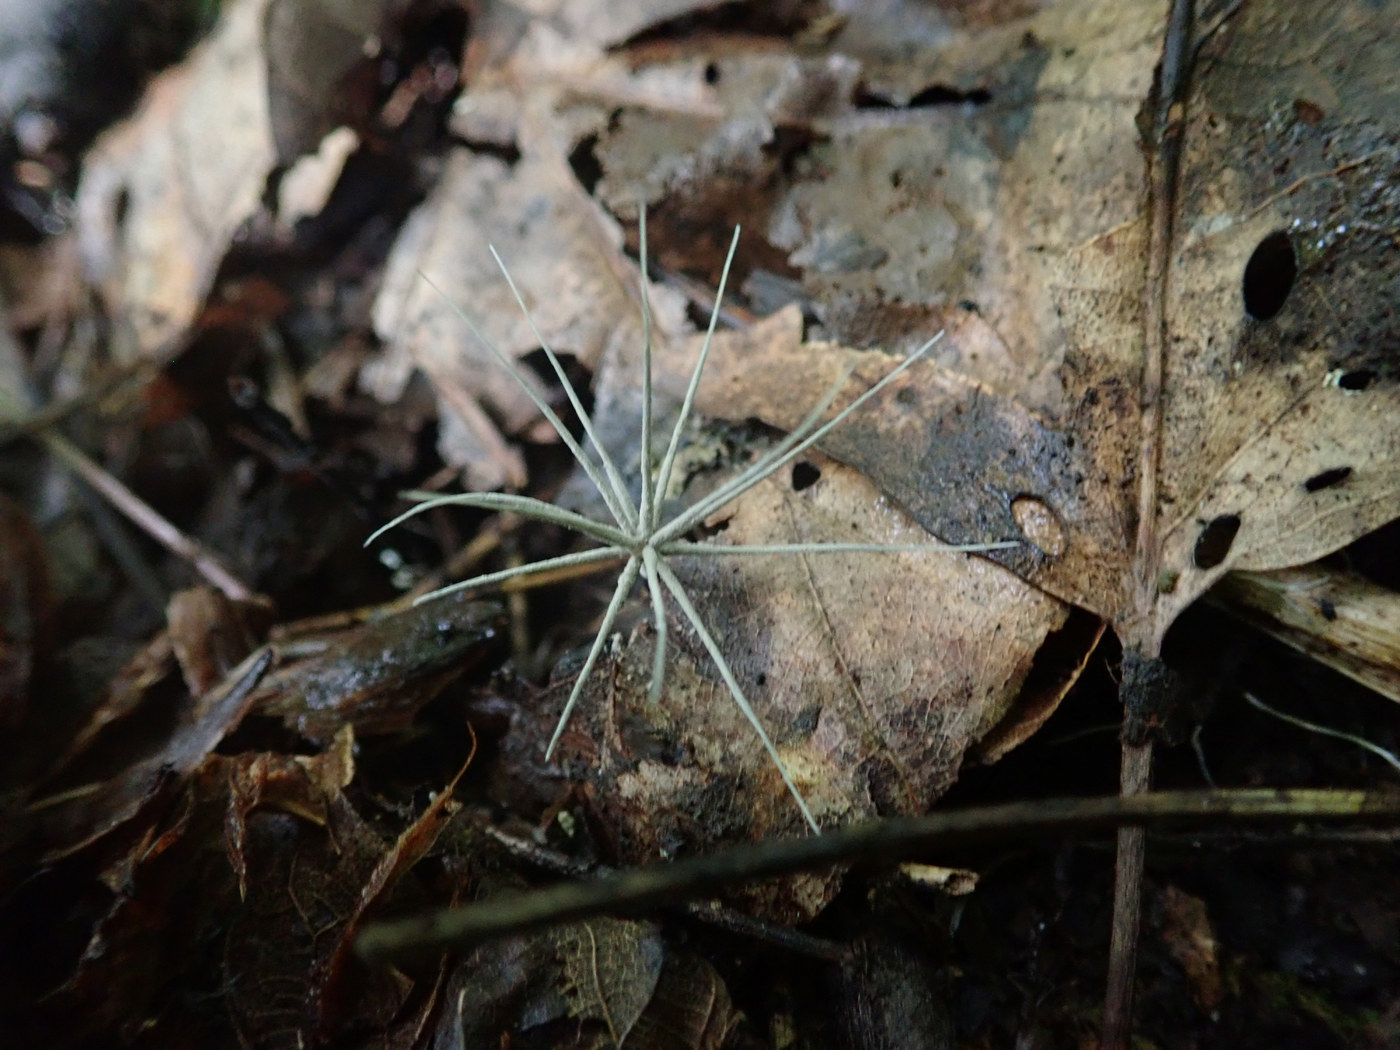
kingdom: Fungi
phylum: Ascomycota
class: Sordariomycetes
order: Xylariales
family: Xylariaceae
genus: Xylaria
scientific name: Xylaria tentaculata
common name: Fairy sparklers
